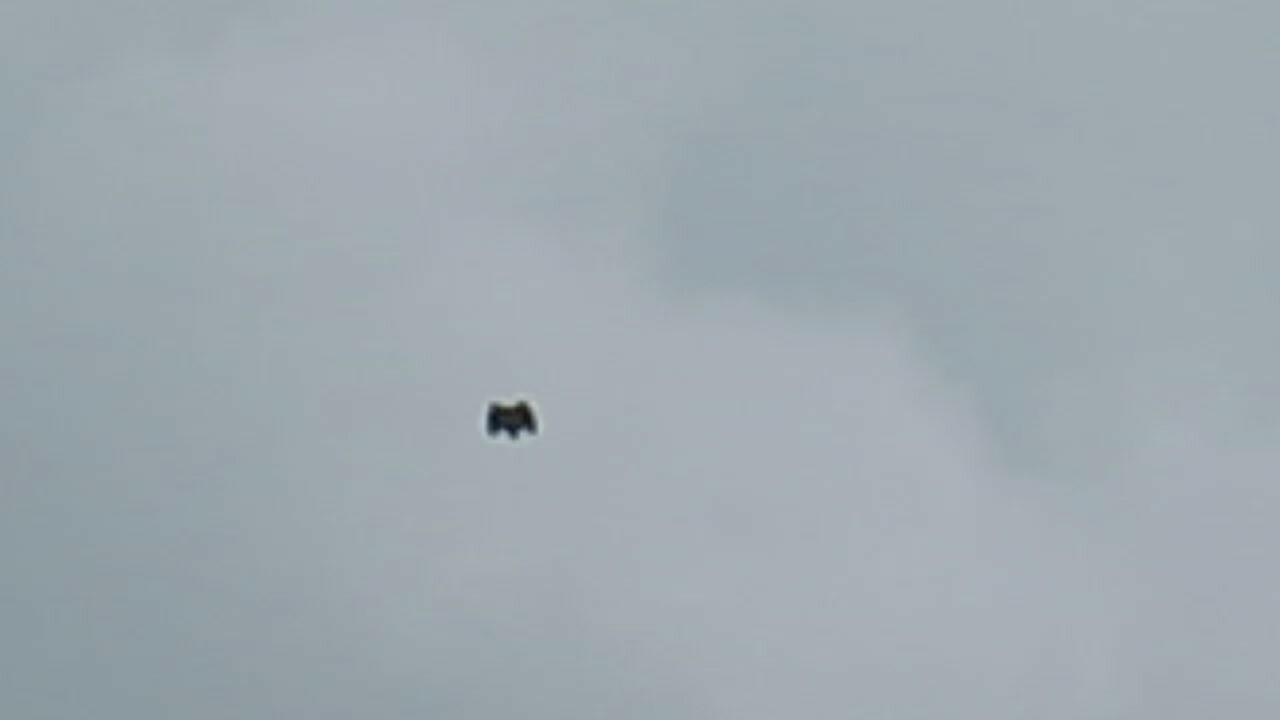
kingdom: Animalia
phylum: Chordata
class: Aves
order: Accipitriformes
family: Accipitridae
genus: Buteo
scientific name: Buteo jamaicensis
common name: Red-tailed hawk
